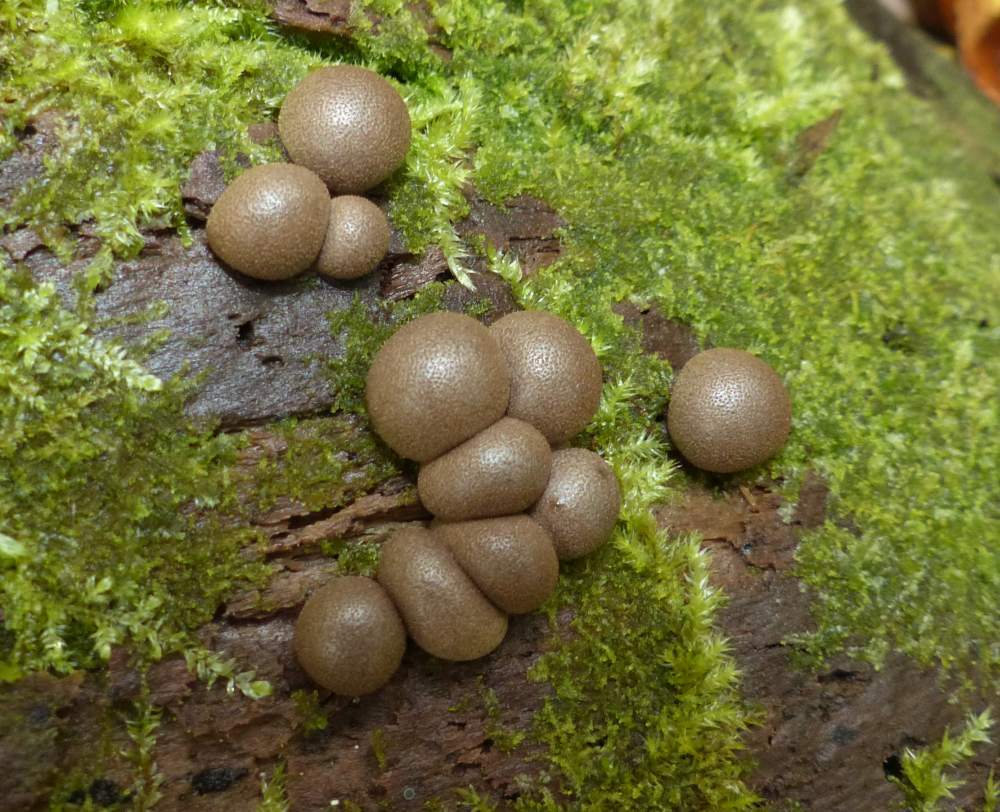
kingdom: Protozoa
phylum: Mycetozoa
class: Myxomycetes
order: Cribrariales
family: Tubiferaceae
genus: Lycogala
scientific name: Lycogala epidendrum
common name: Wolf's milk
